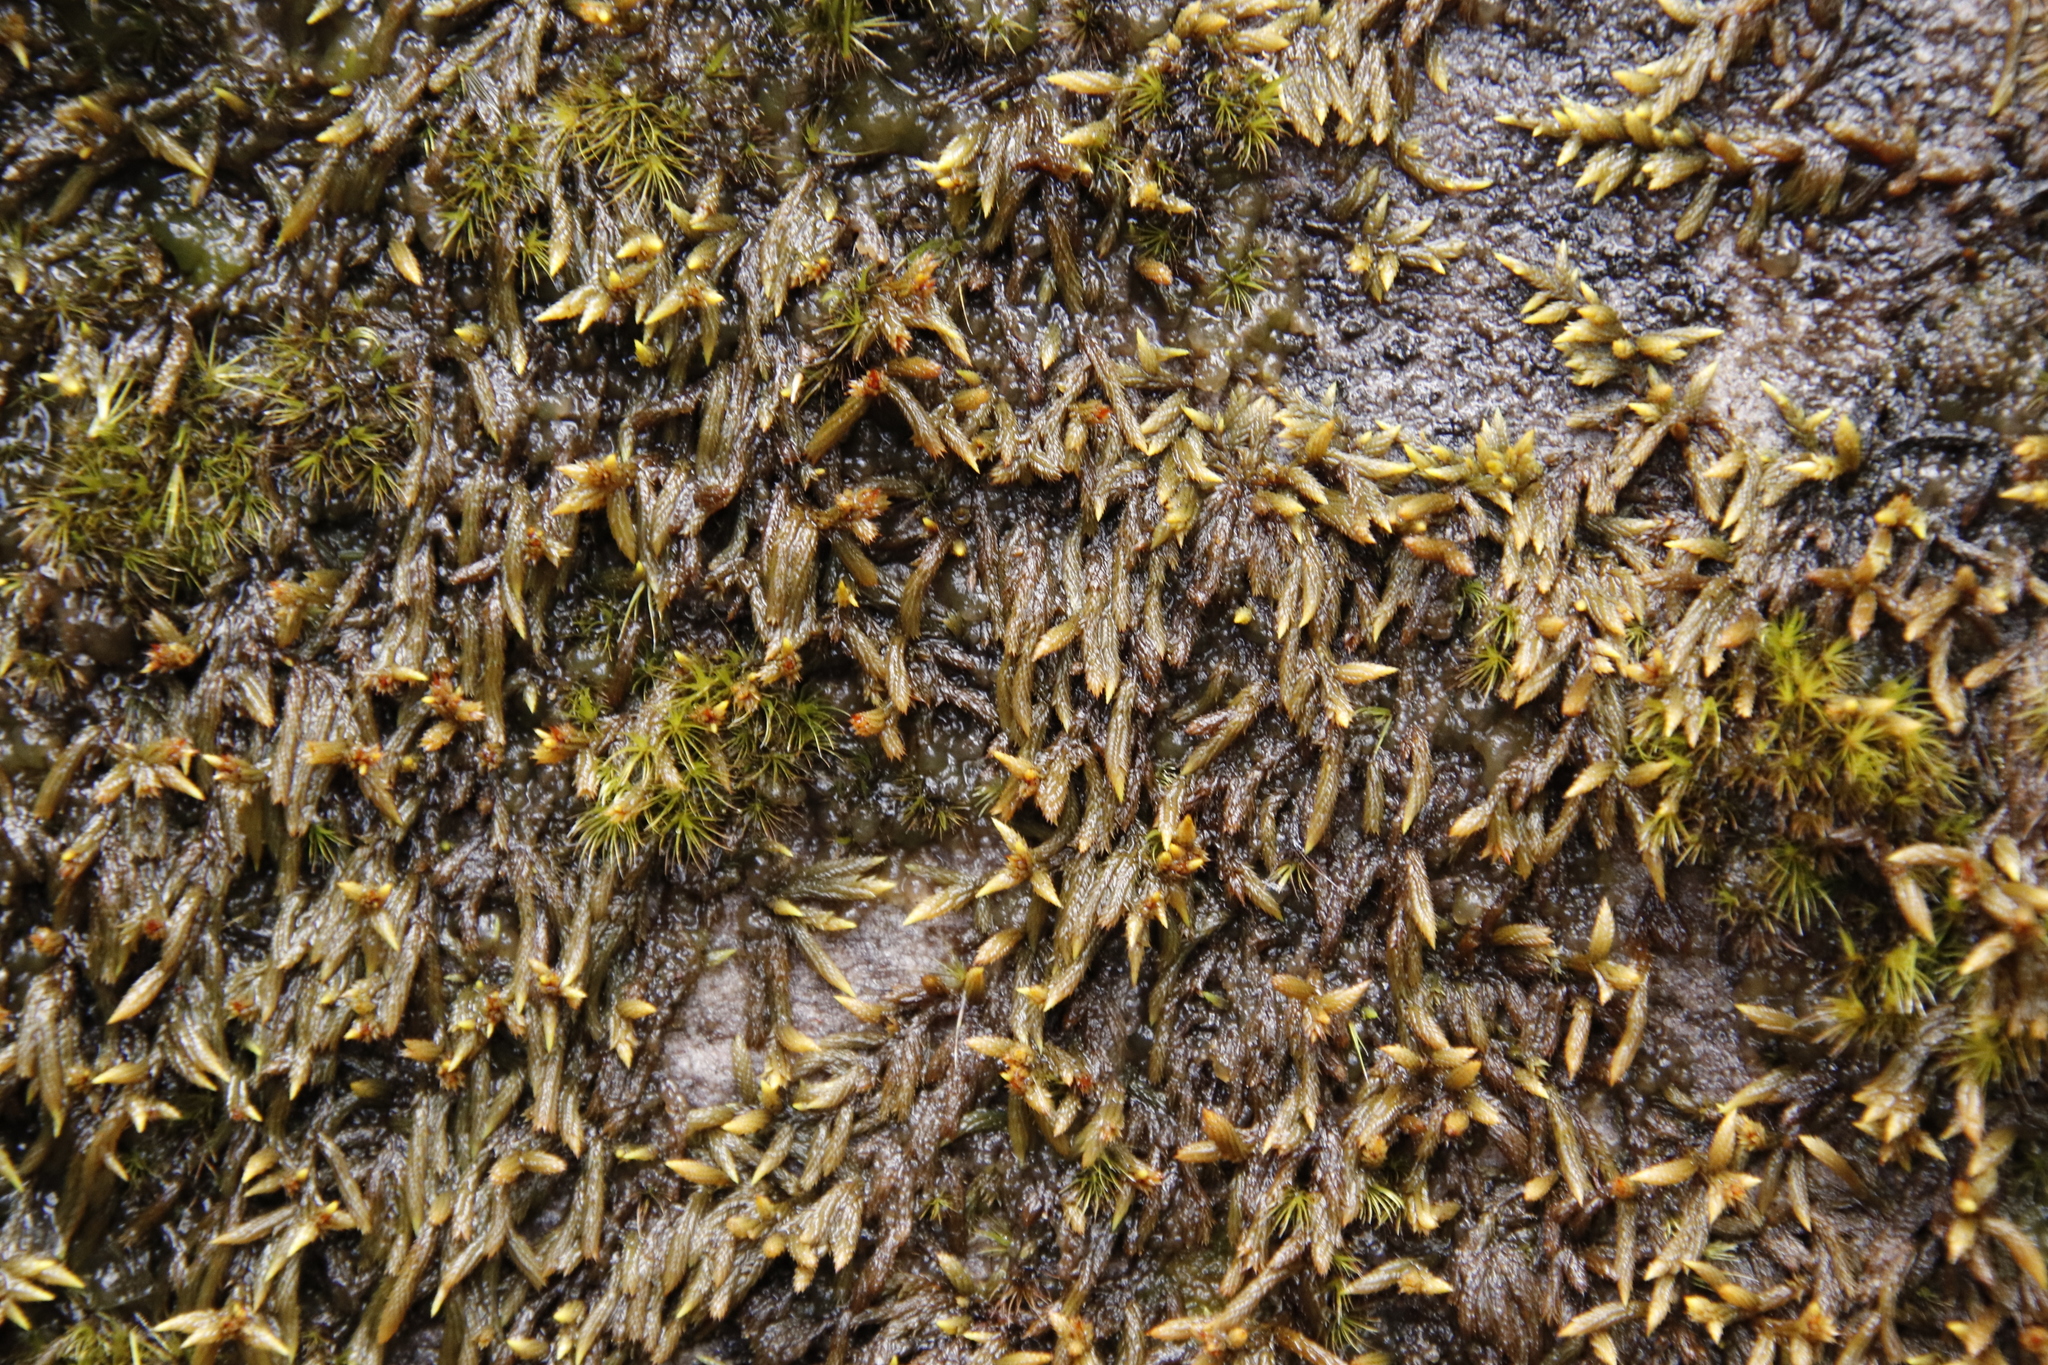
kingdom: Plantae
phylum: Bryophyta
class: Bryopsida
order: Hedwigiales
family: Hedwigiaceae
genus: Rhacocarpus
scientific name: Rhacocarpus purpurascens
